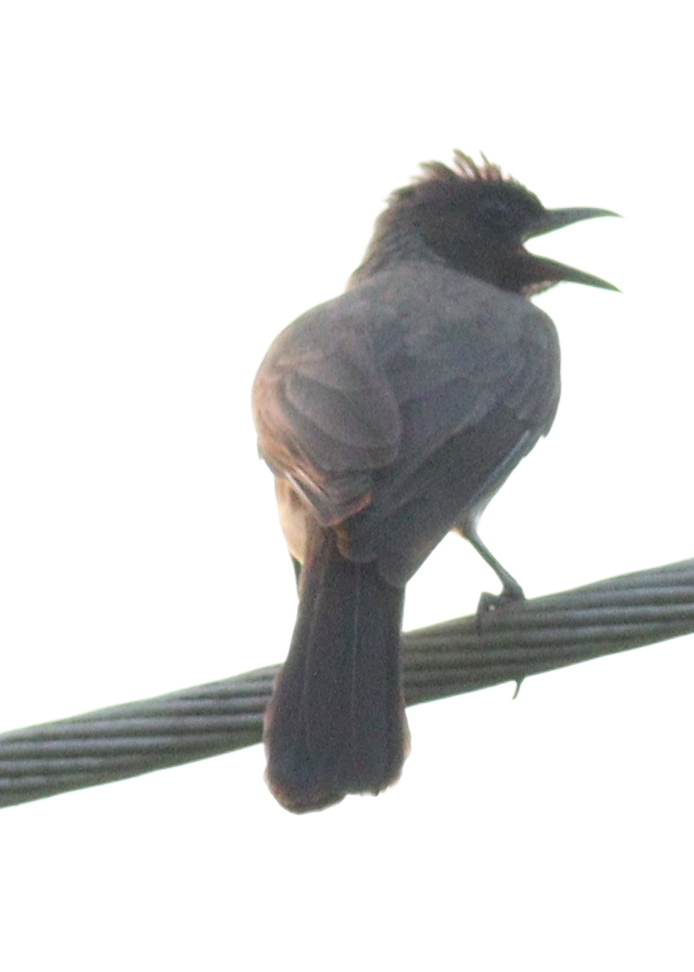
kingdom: Animalia
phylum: Chordata
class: Aves
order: Passeriformes
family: Pycnonotidae
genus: Pycnonotus
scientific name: Pycnonotus barbatus
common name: Common bulbul
